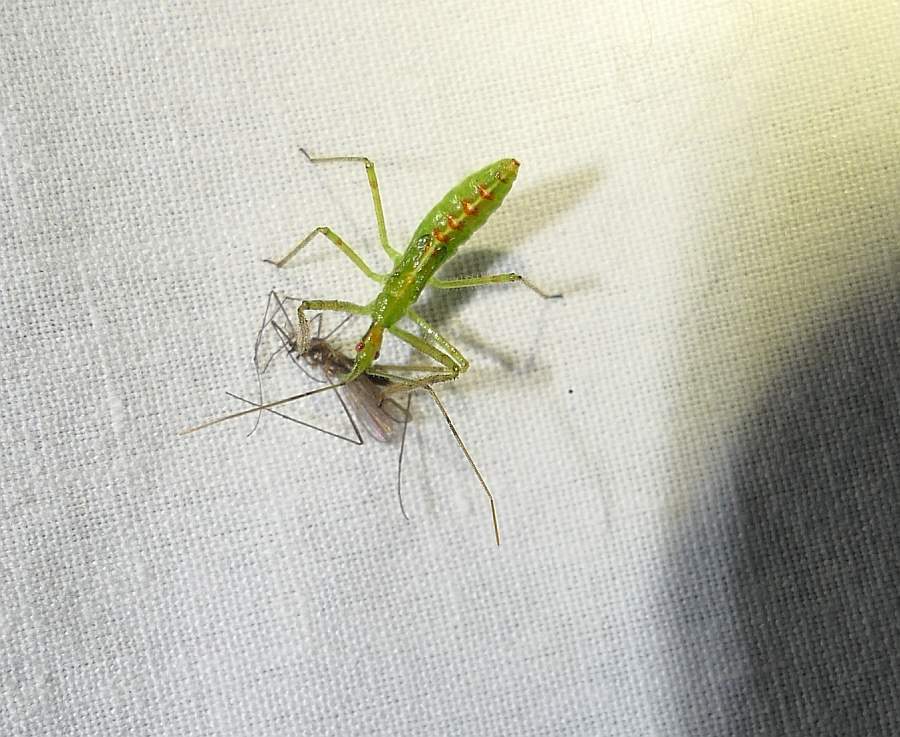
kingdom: Animalia
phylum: Arthropoda
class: Insecta
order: Hemiptera
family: Reduviidae
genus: Zelus
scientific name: Zelus luridus
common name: Pale green assassin bug
